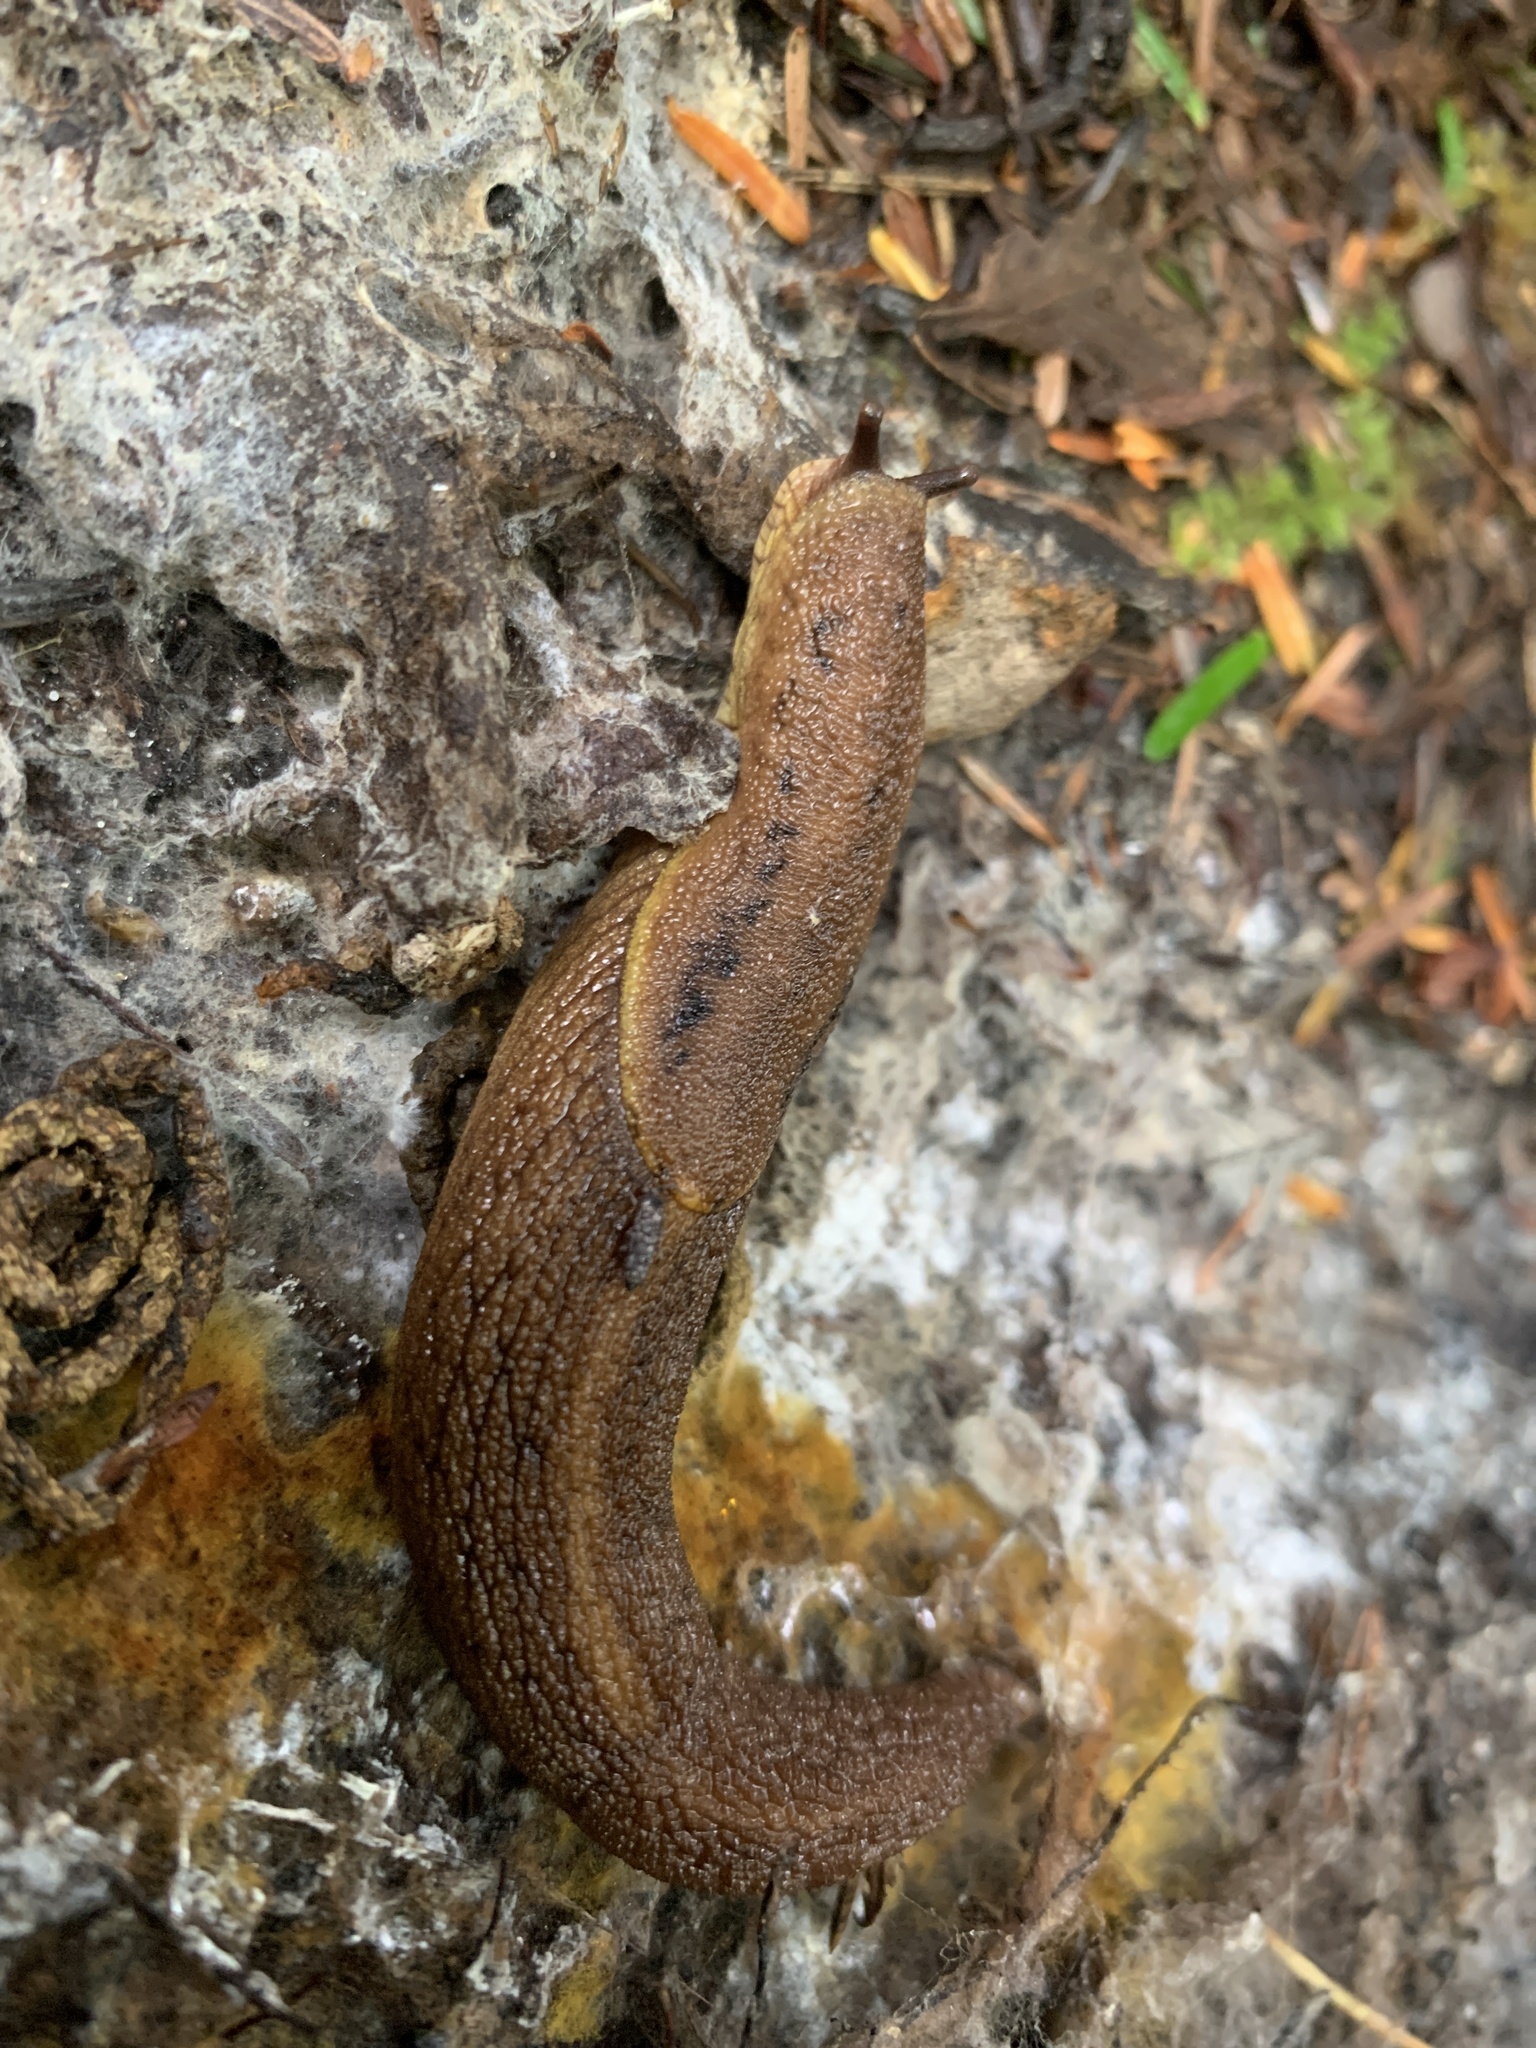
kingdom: Animalia
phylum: Mollusca
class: Gastropoda
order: Stylommatophora
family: Ariolimacidae
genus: Prophysaon
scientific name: Prophysaon foliolatum
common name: Yellow-bordered taildropper
